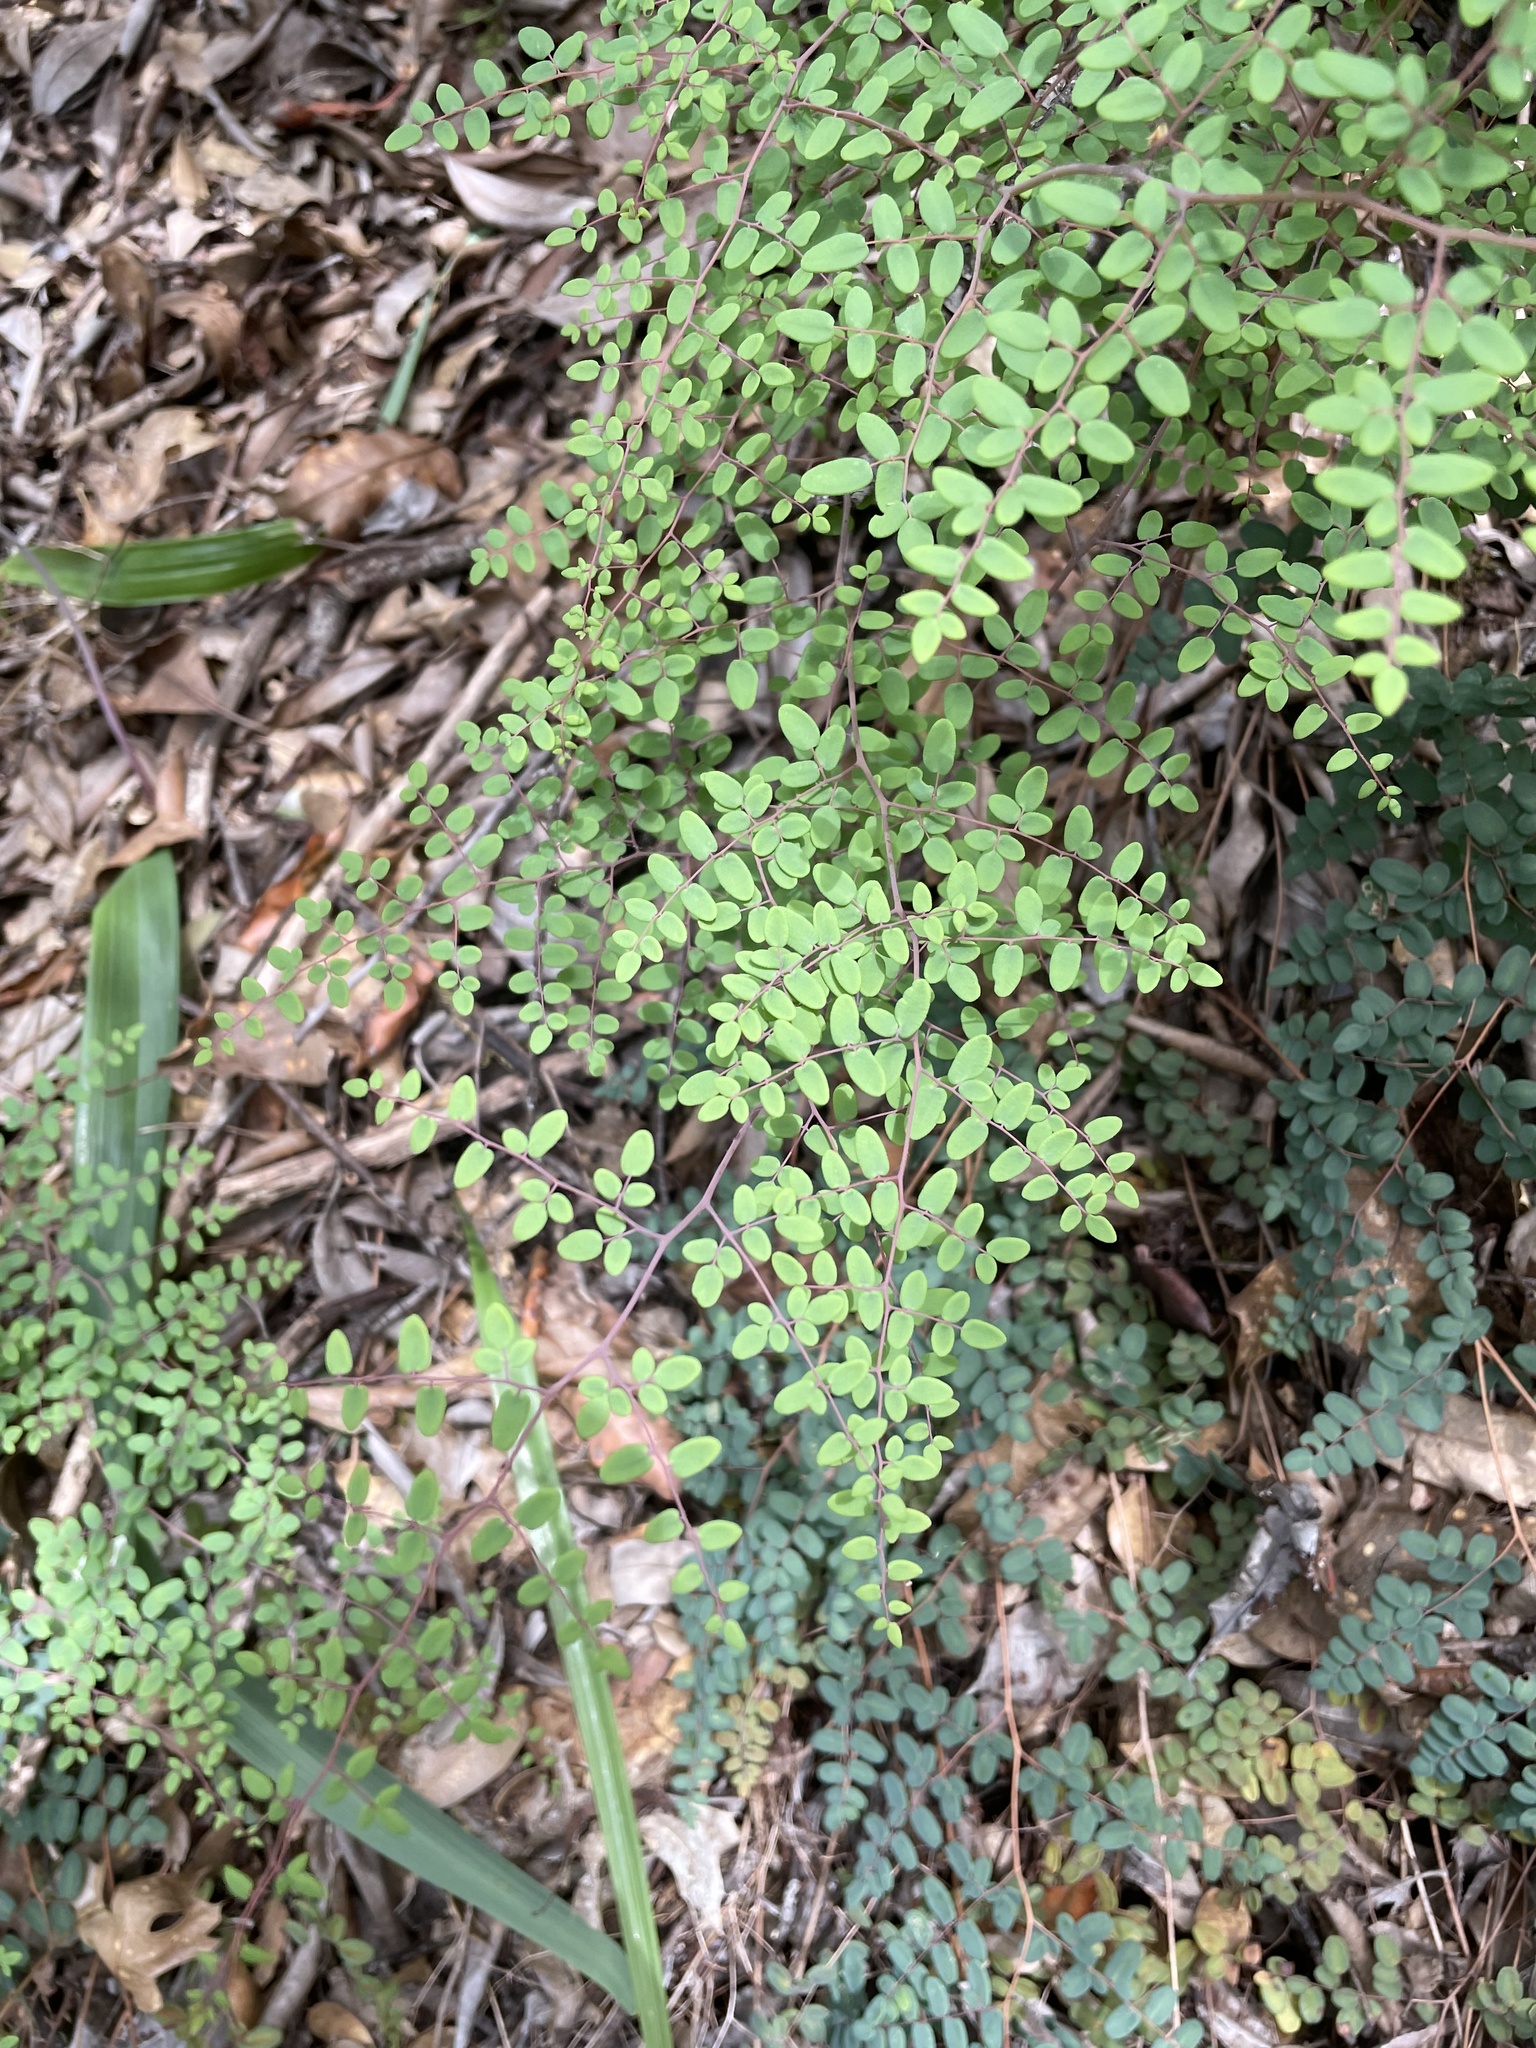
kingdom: Plantae
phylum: Tracheophyta
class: Polypodiopsida
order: Polypodiales
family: Pteridaceae
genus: Pellaea
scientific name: Pellaea andromedifolia
